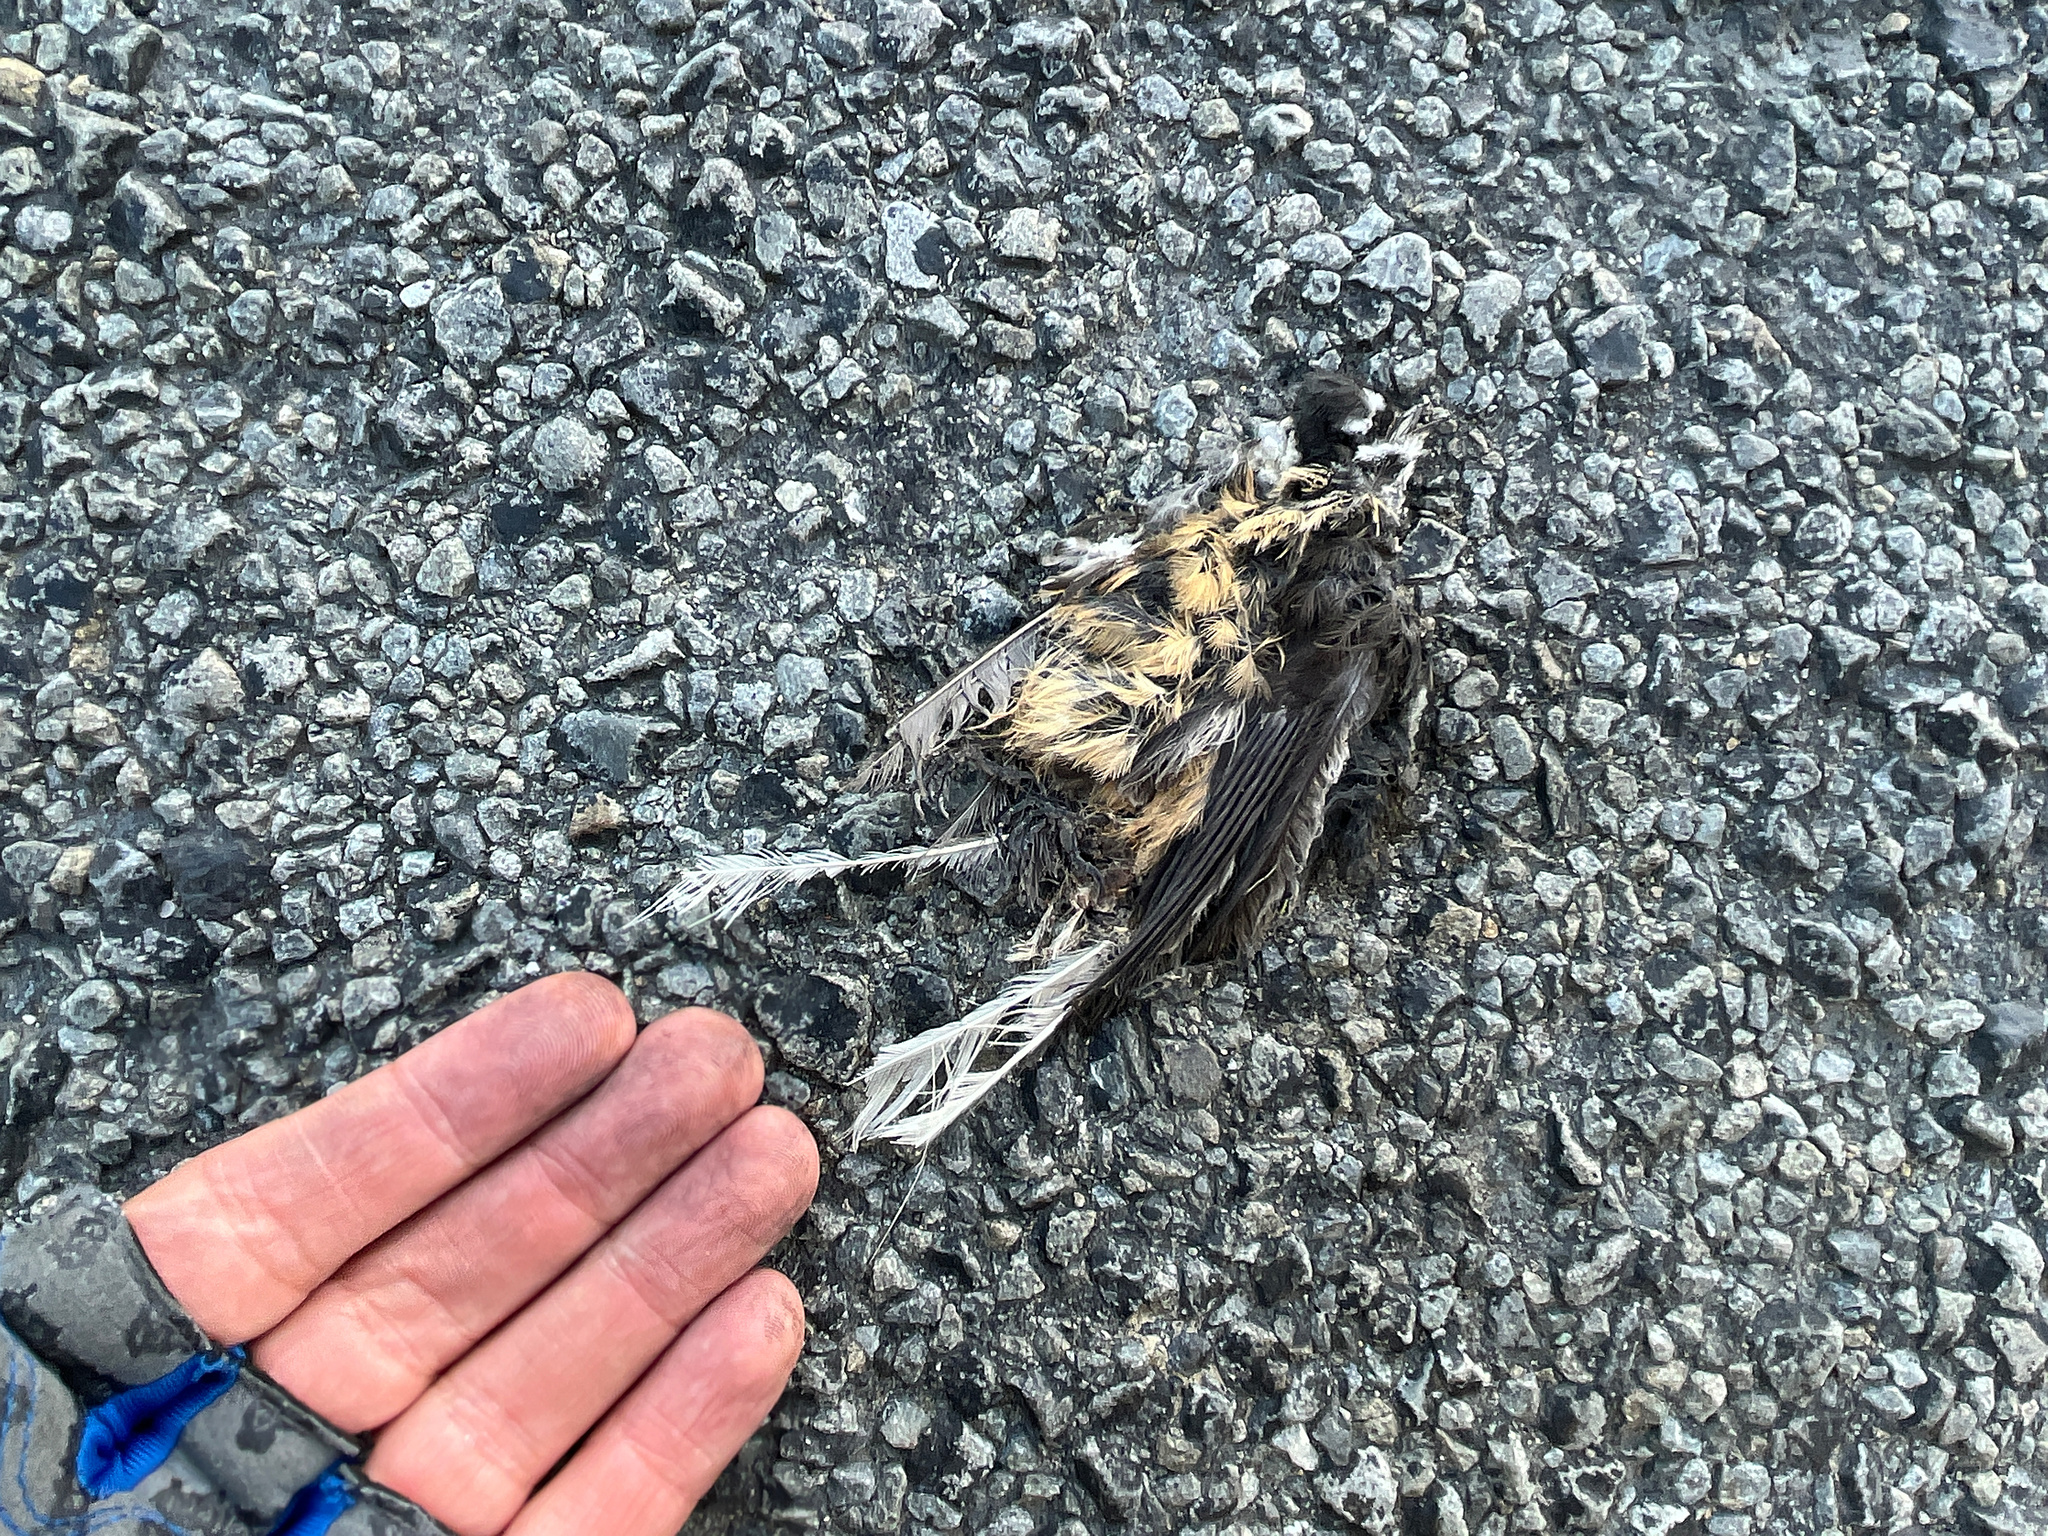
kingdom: Animalia
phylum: Chordata
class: Aves
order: Passeriformes
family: Rhipiduridae
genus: Rhipidura
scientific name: Rhipidura fuliginosa
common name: New zealand fantail
